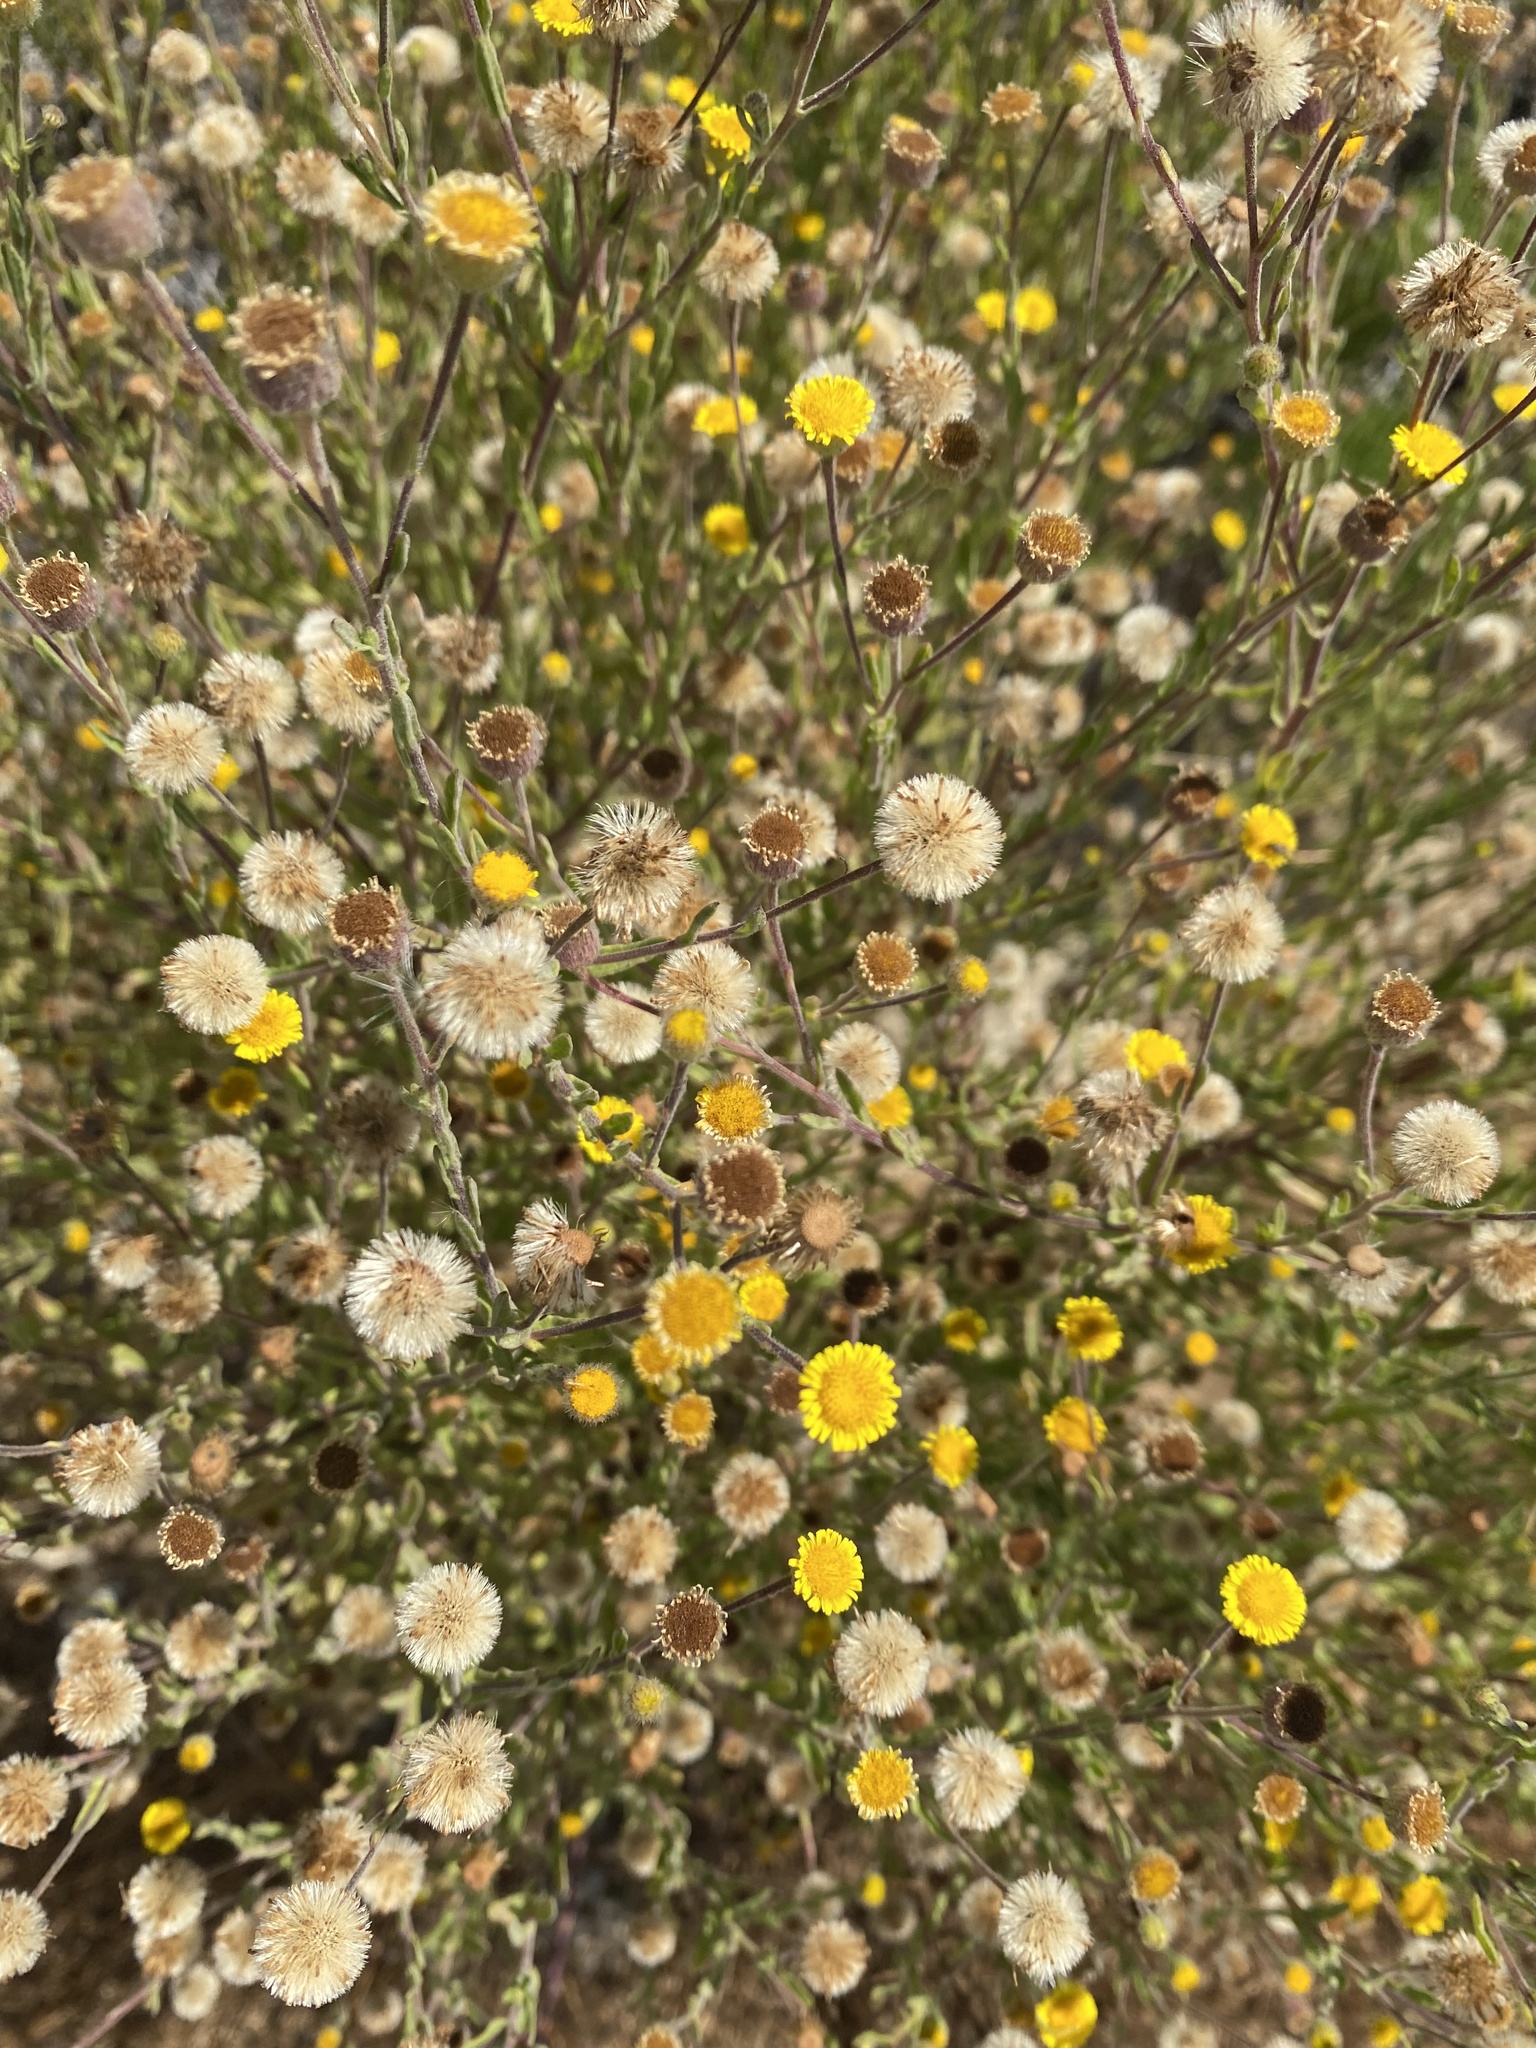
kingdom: Plantae
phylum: Tracheophyta
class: Magnoliopsida
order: Asterales
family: Asteraceae
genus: Pulicaria
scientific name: Pulicaria paludosa
